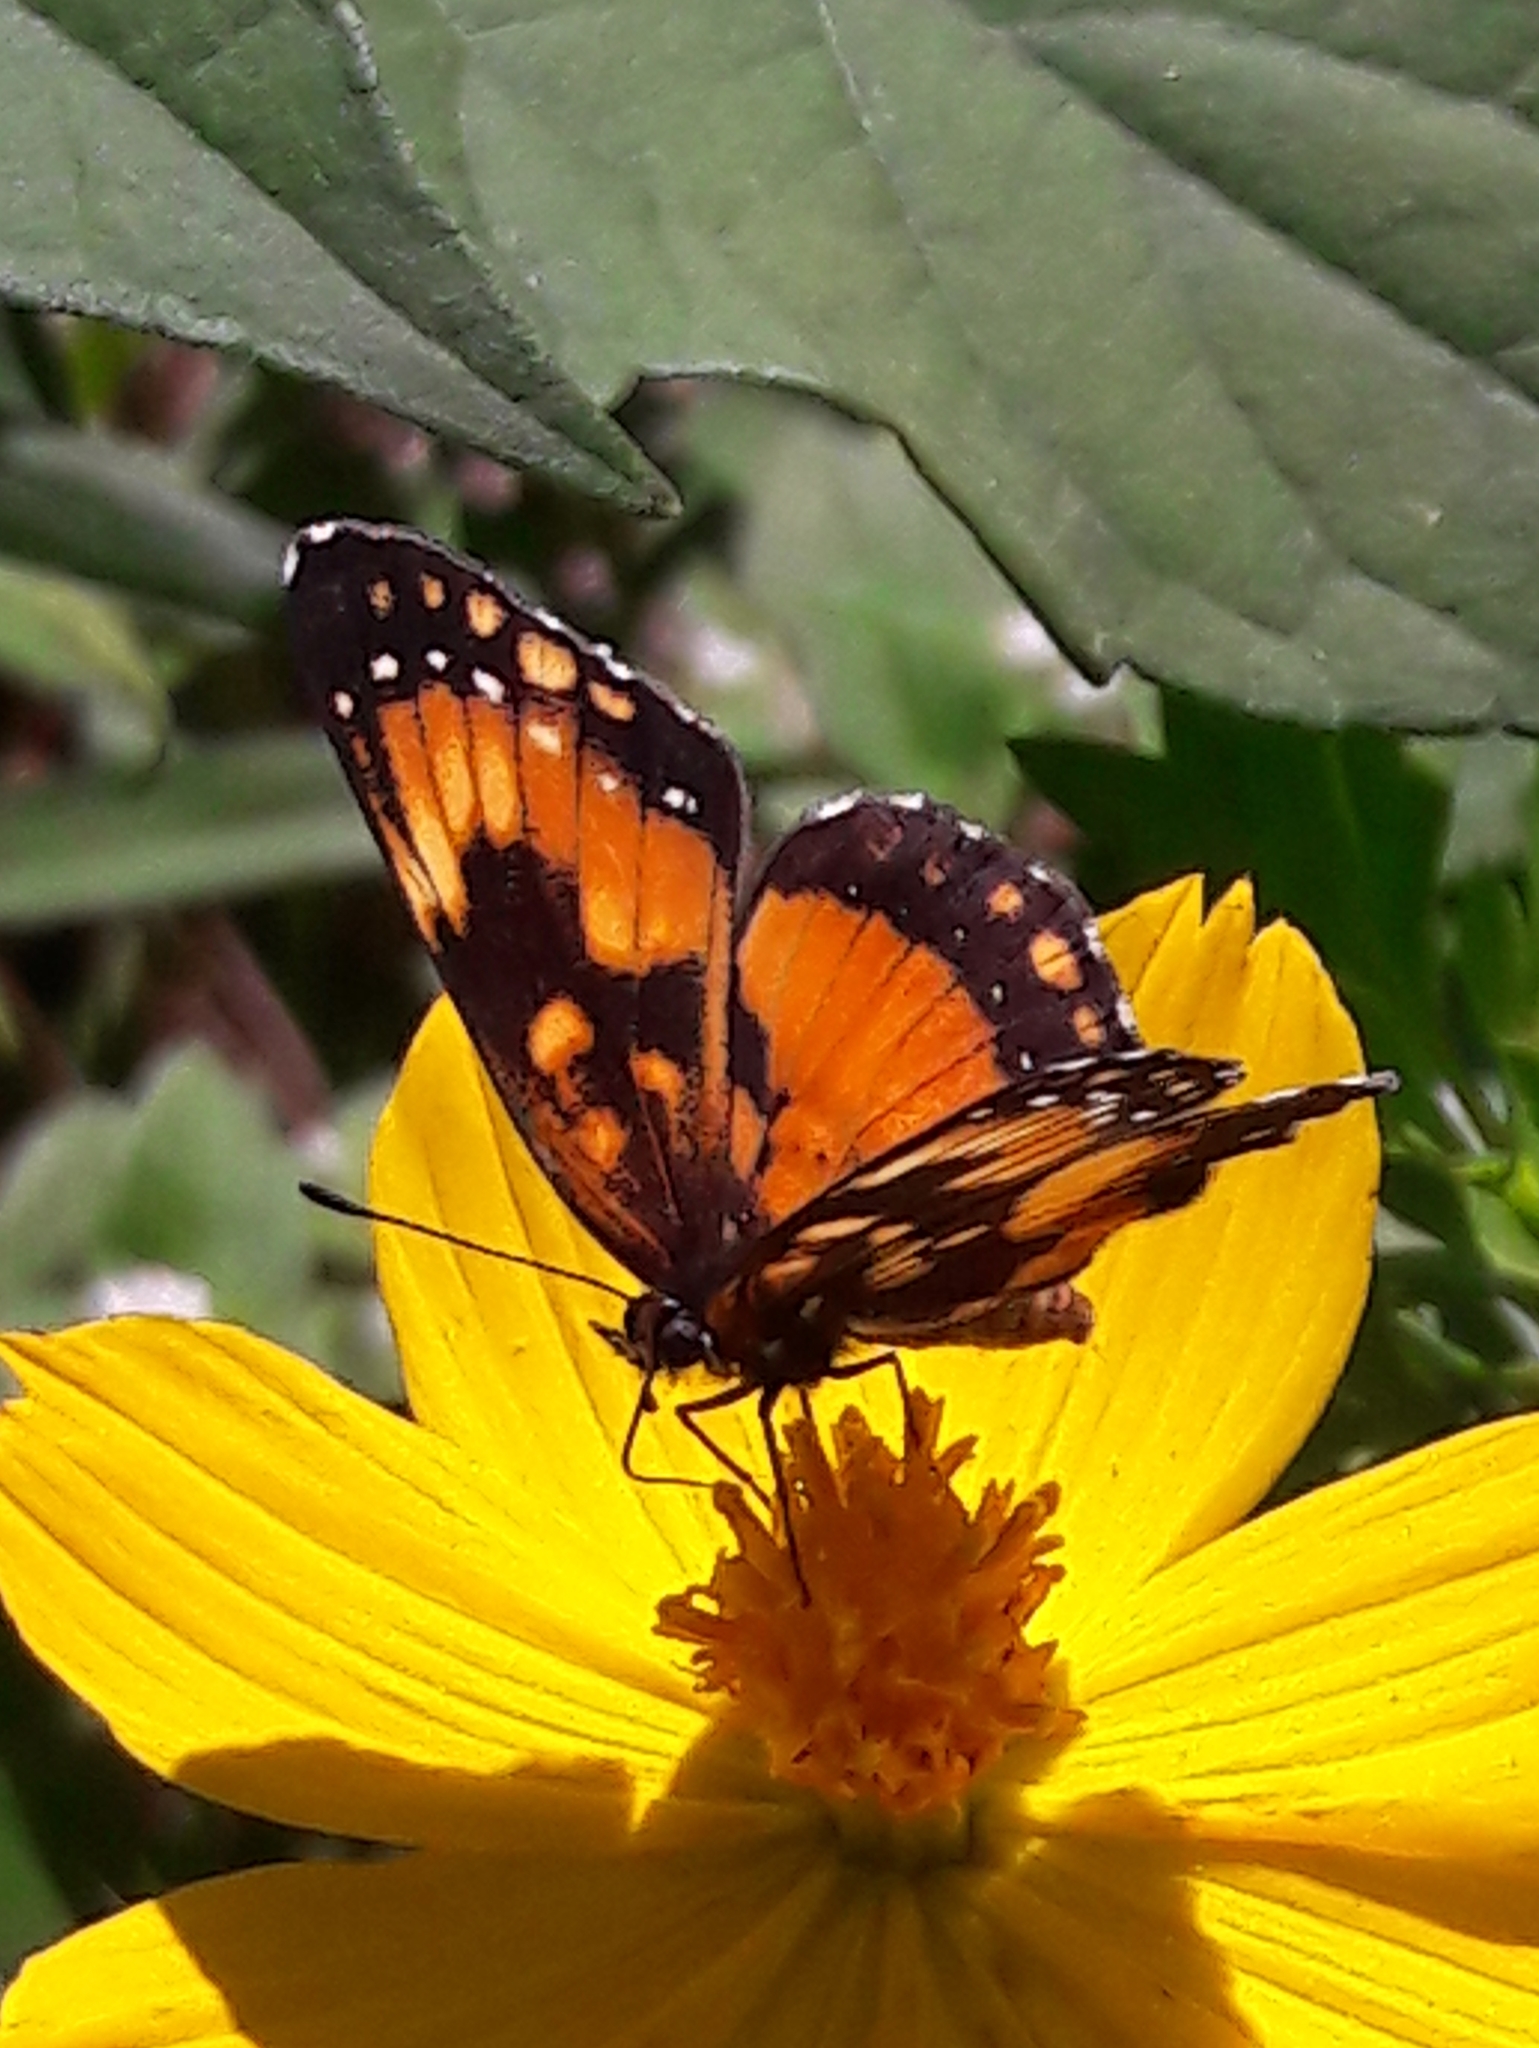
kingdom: Animalia
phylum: Arthropoda
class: Insecta
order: Lepidoptera
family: Nymphalidae
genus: Chlosyne
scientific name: Chlosyne lacinia
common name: Bordered patch
